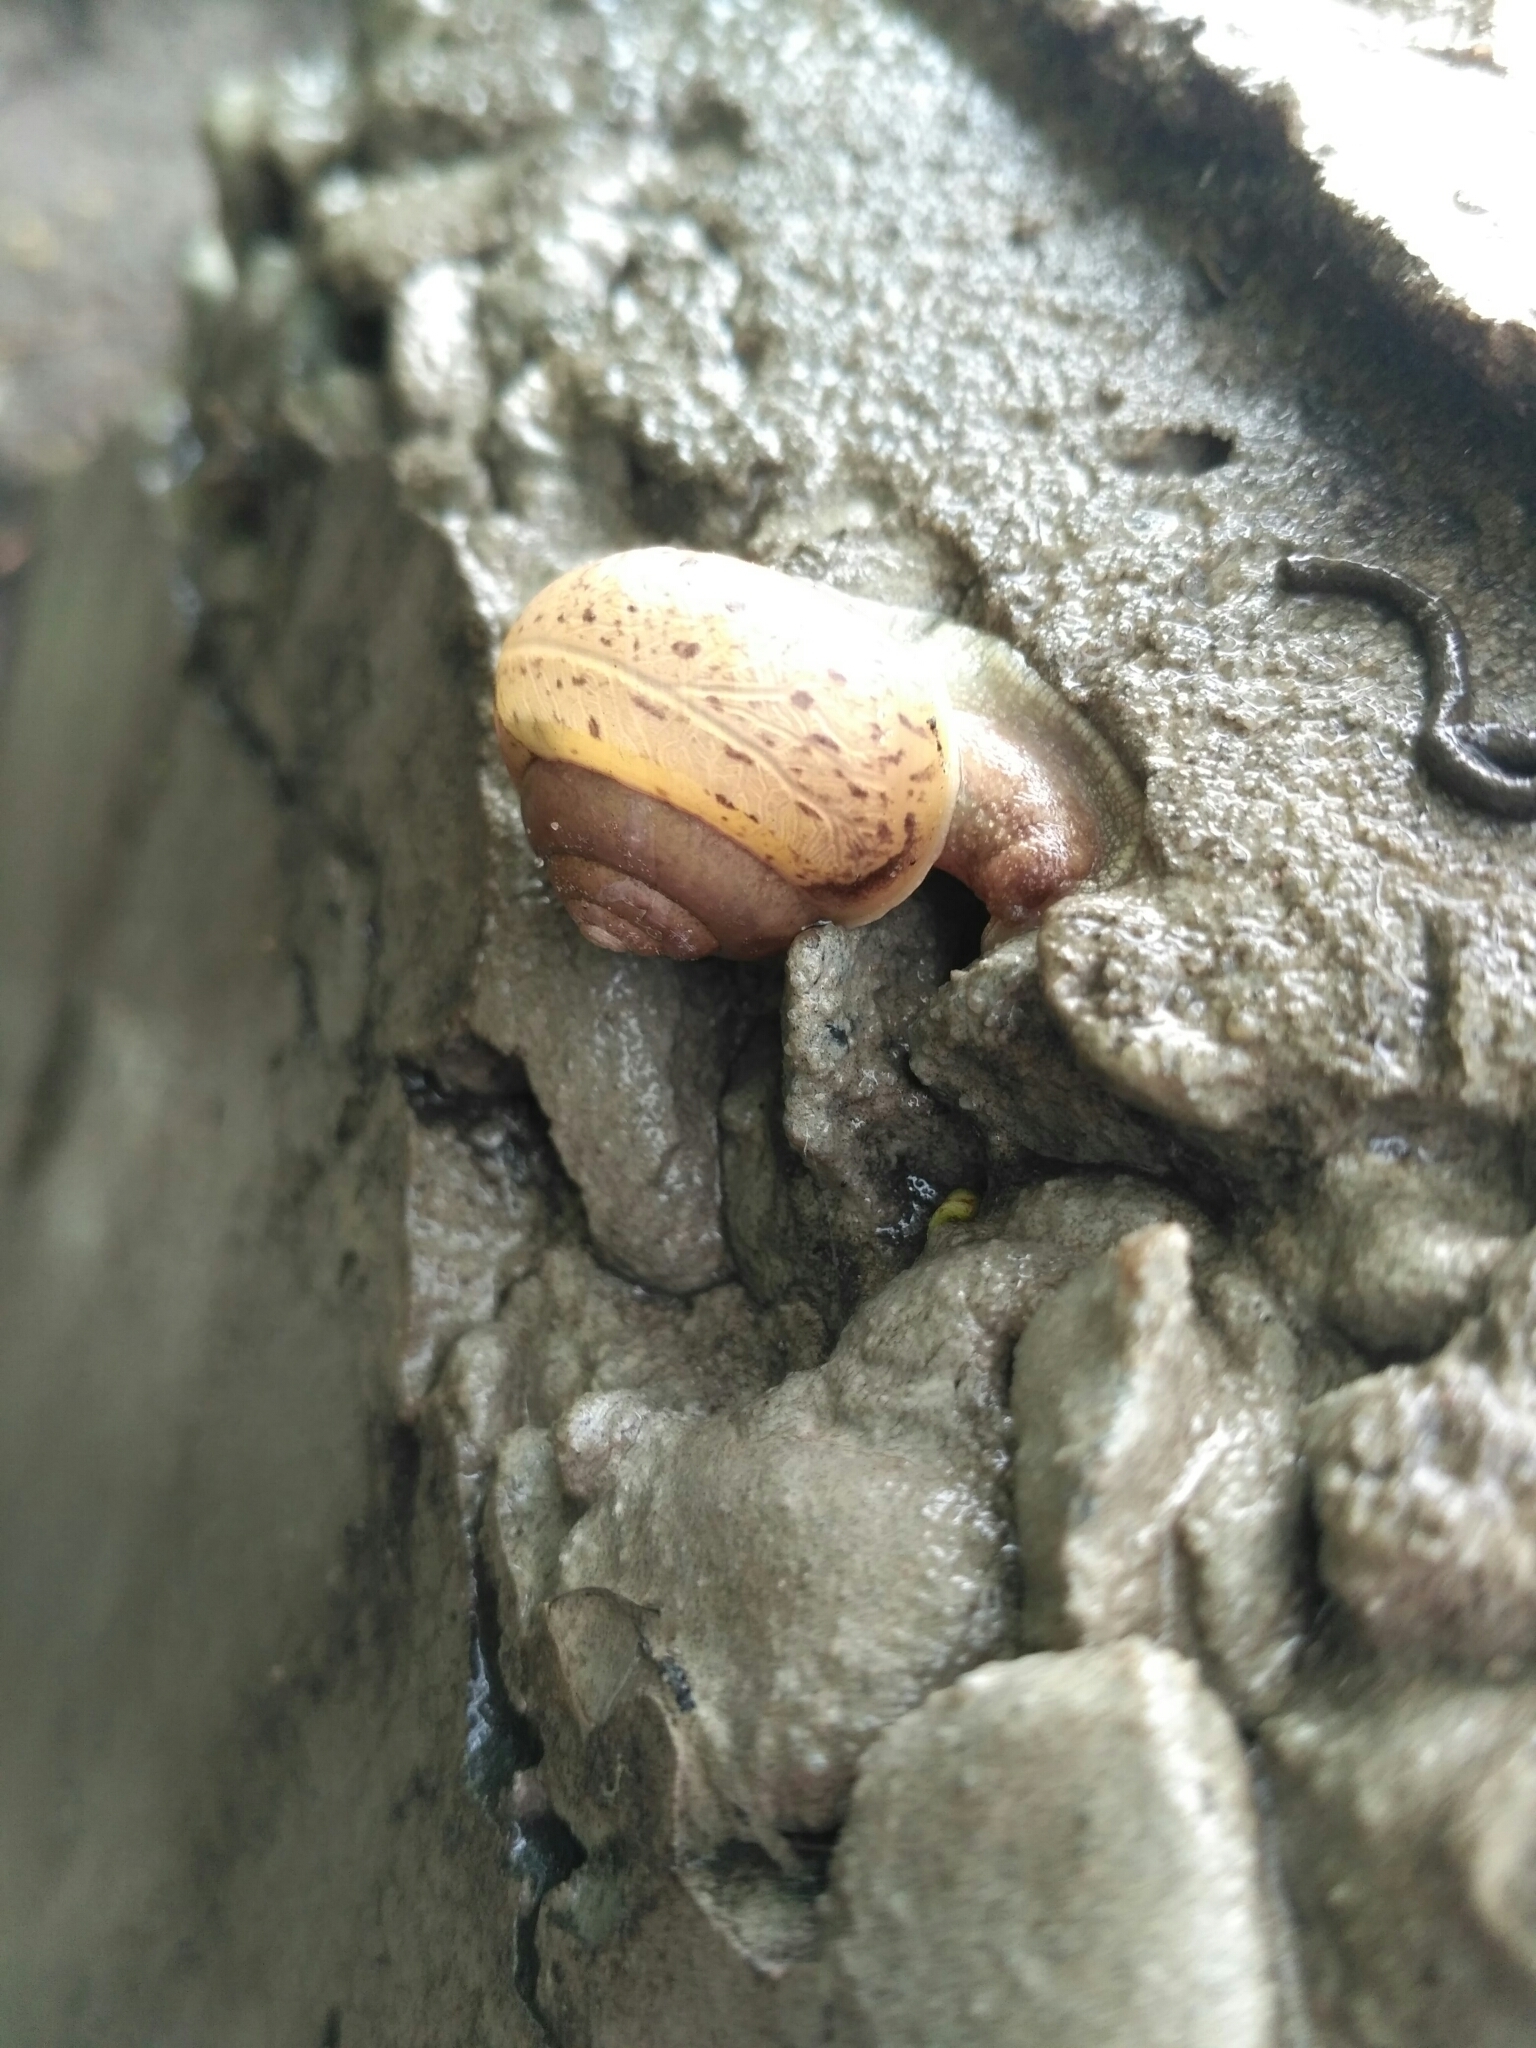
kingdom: Animalia
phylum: Mollusca
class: Gastropoda
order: Stylommatophora
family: Camaenidae
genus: Fruticicola
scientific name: Fruticicola fruticum
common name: Bush snail
